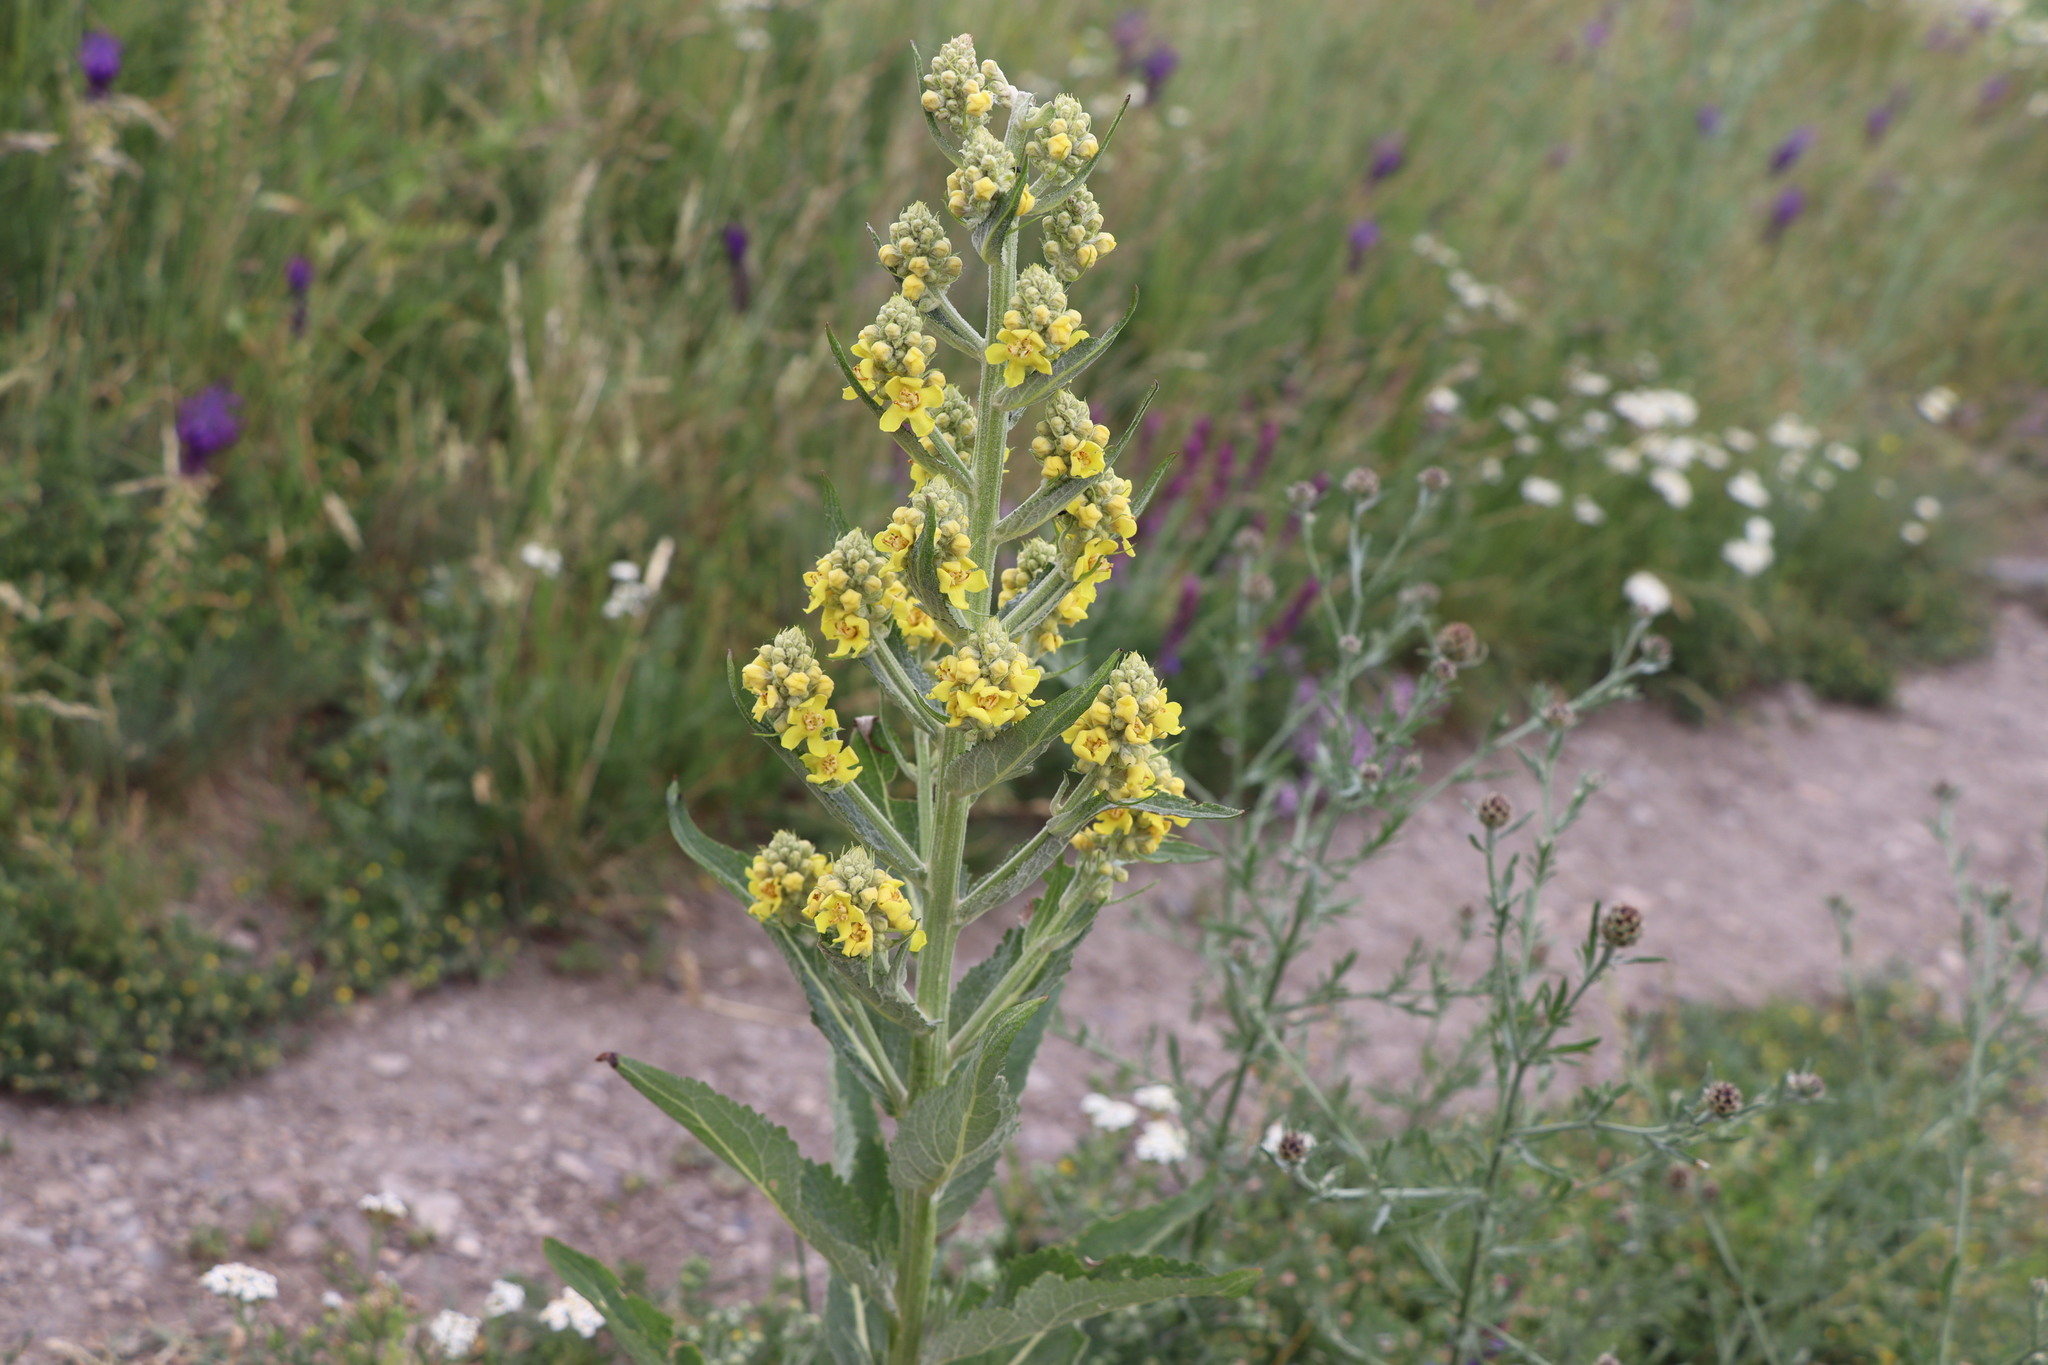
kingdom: Plantae
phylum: Tracheophyta
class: Magnoliopsida
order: Lamiales
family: Scrophulariaceae
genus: Verbascum
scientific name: Verbascum lychnitis
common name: White mullein
